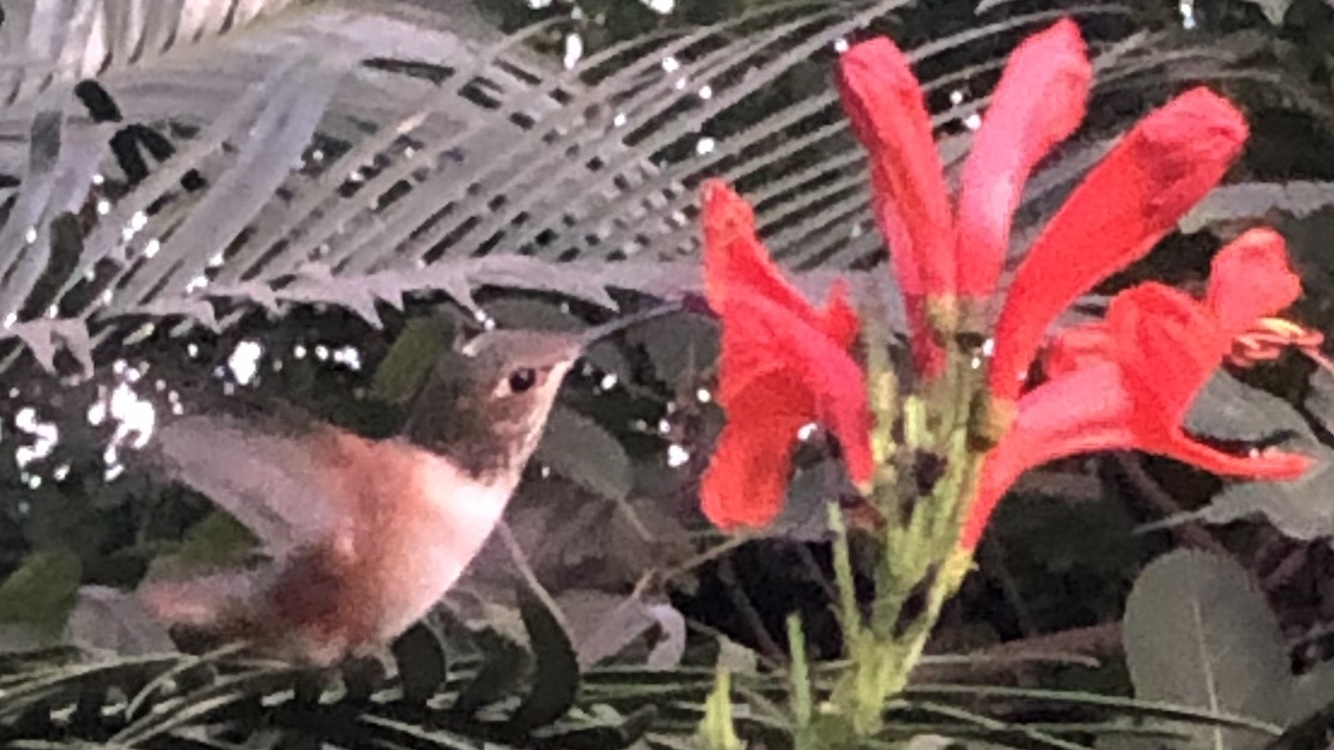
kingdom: Animalia
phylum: Chordata
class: Aves
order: Apodiformes
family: Trochilidae
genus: Selasphorus
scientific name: Selasphorus
